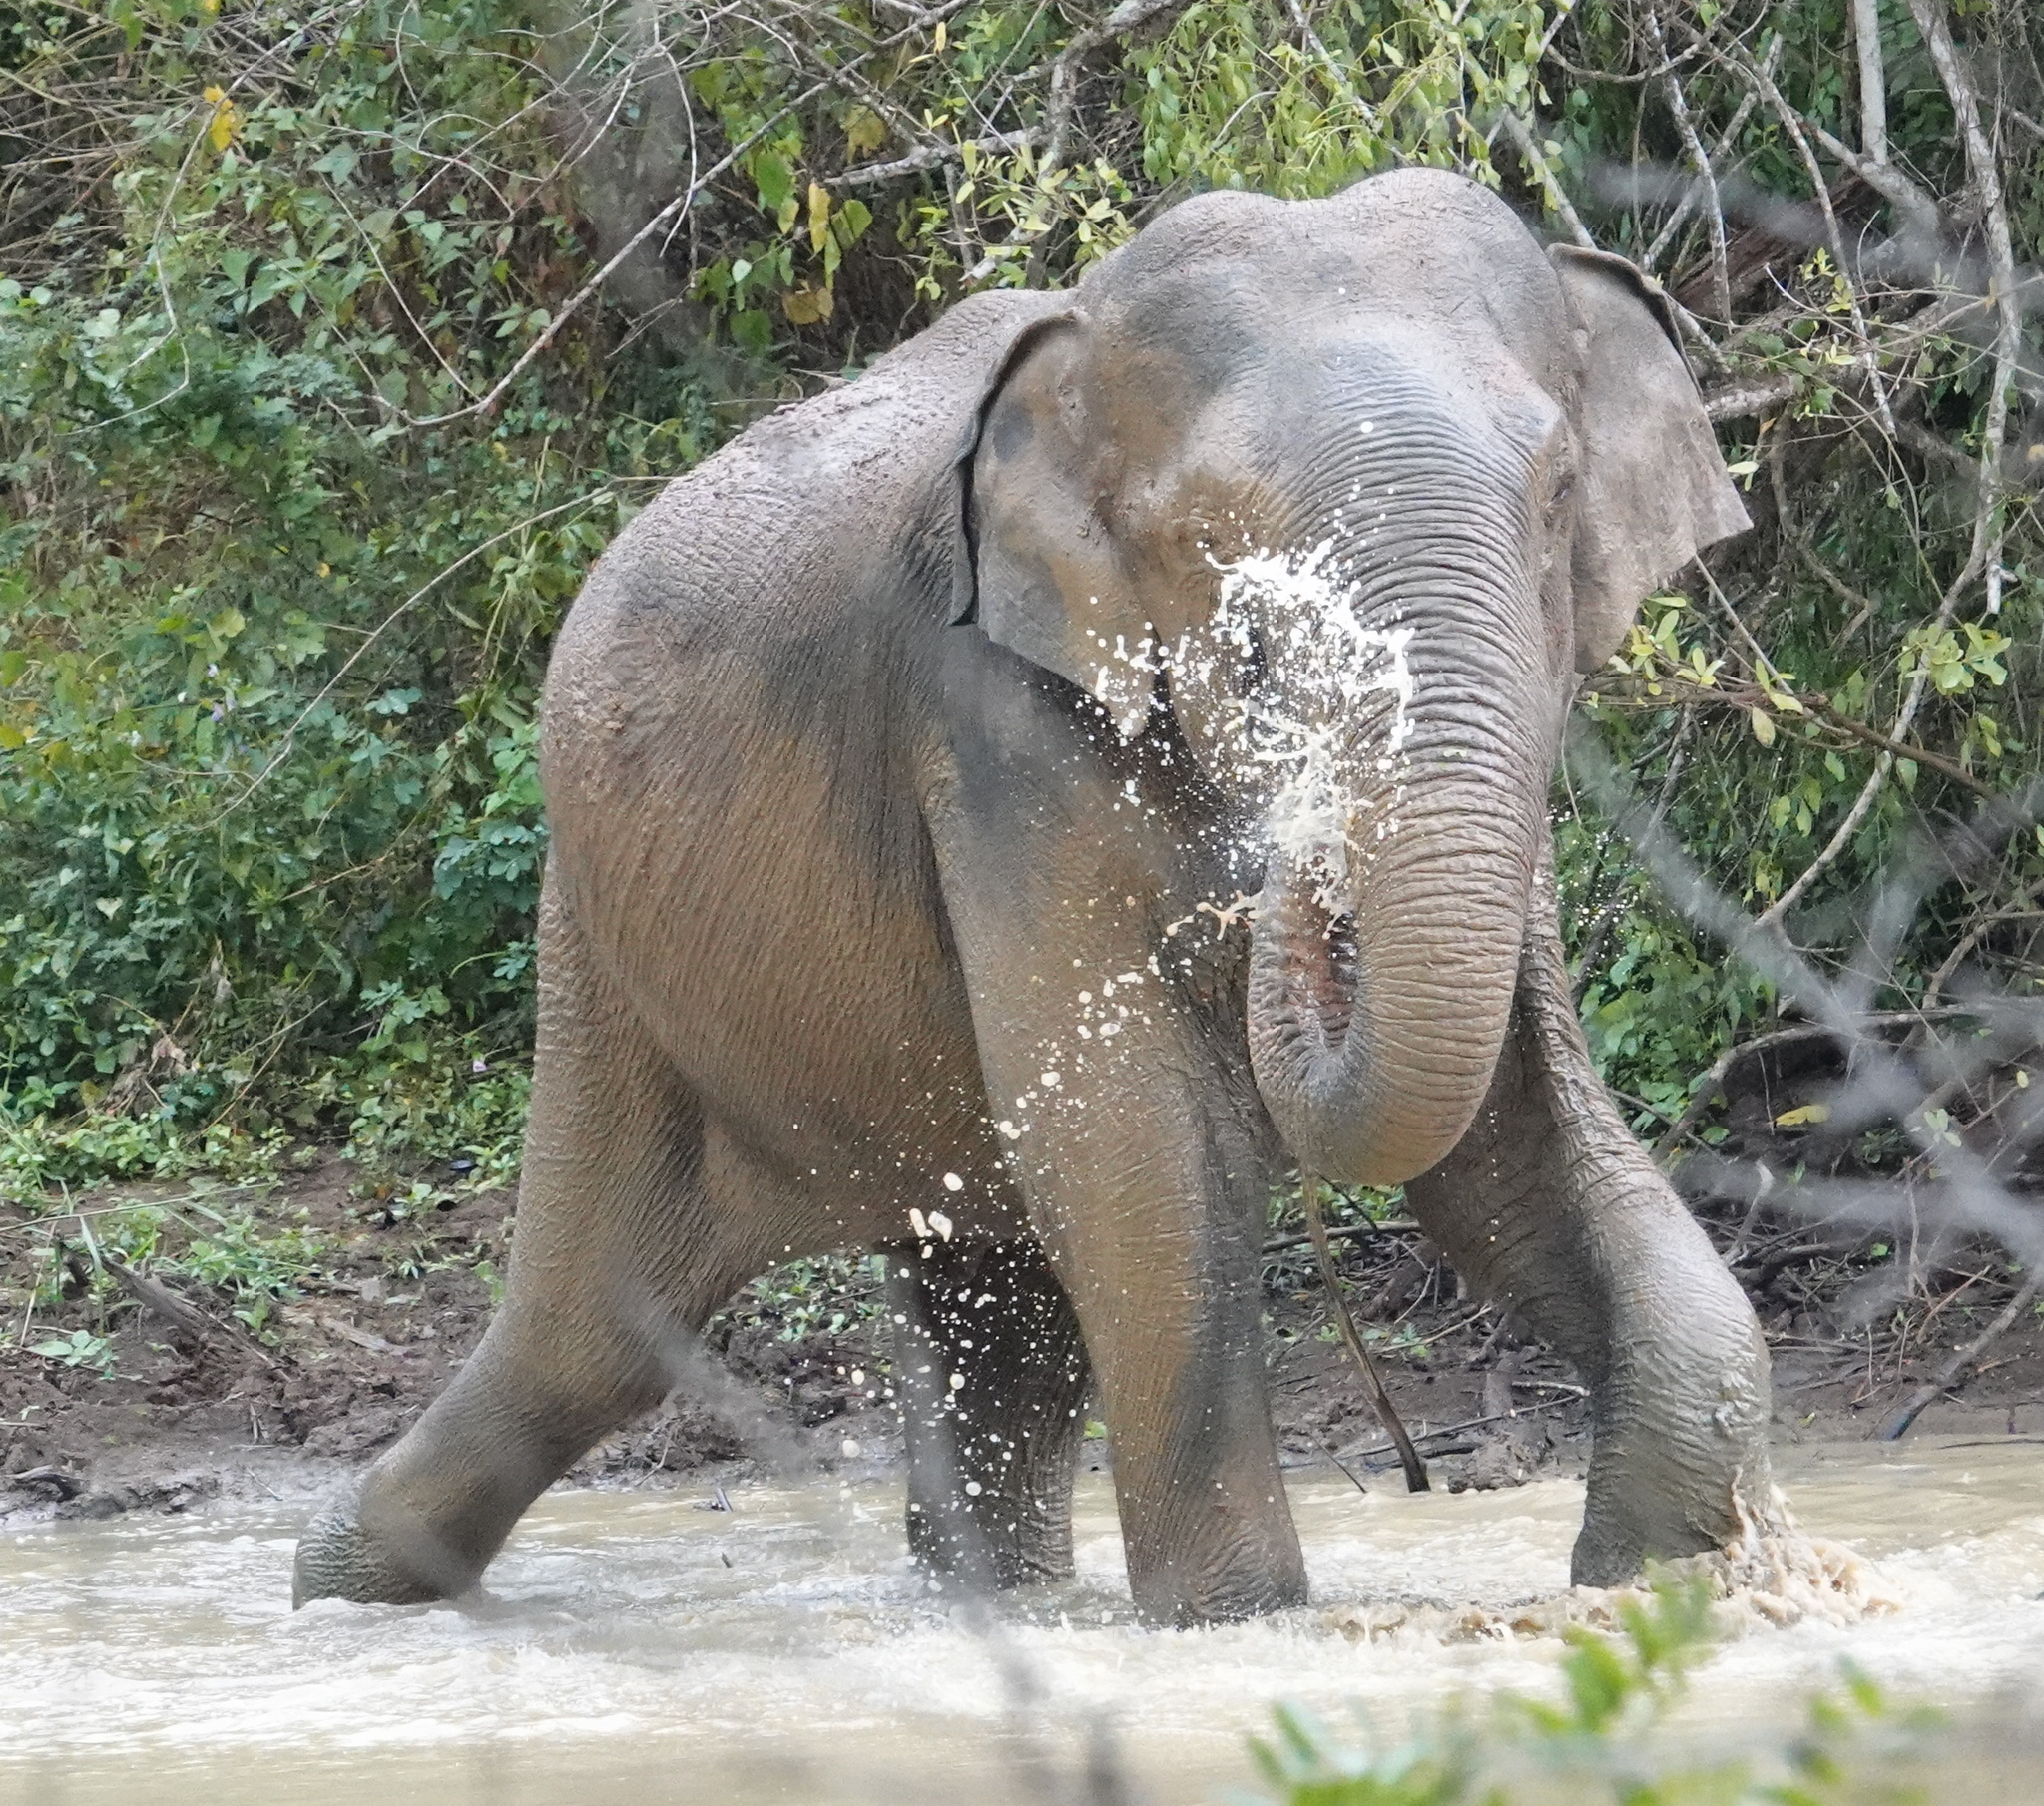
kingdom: Animalia
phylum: Chordata
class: Mammalia
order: Proboscidea
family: Elephantidae
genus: Elephas
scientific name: Elephas maximus
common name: Asian elephant
